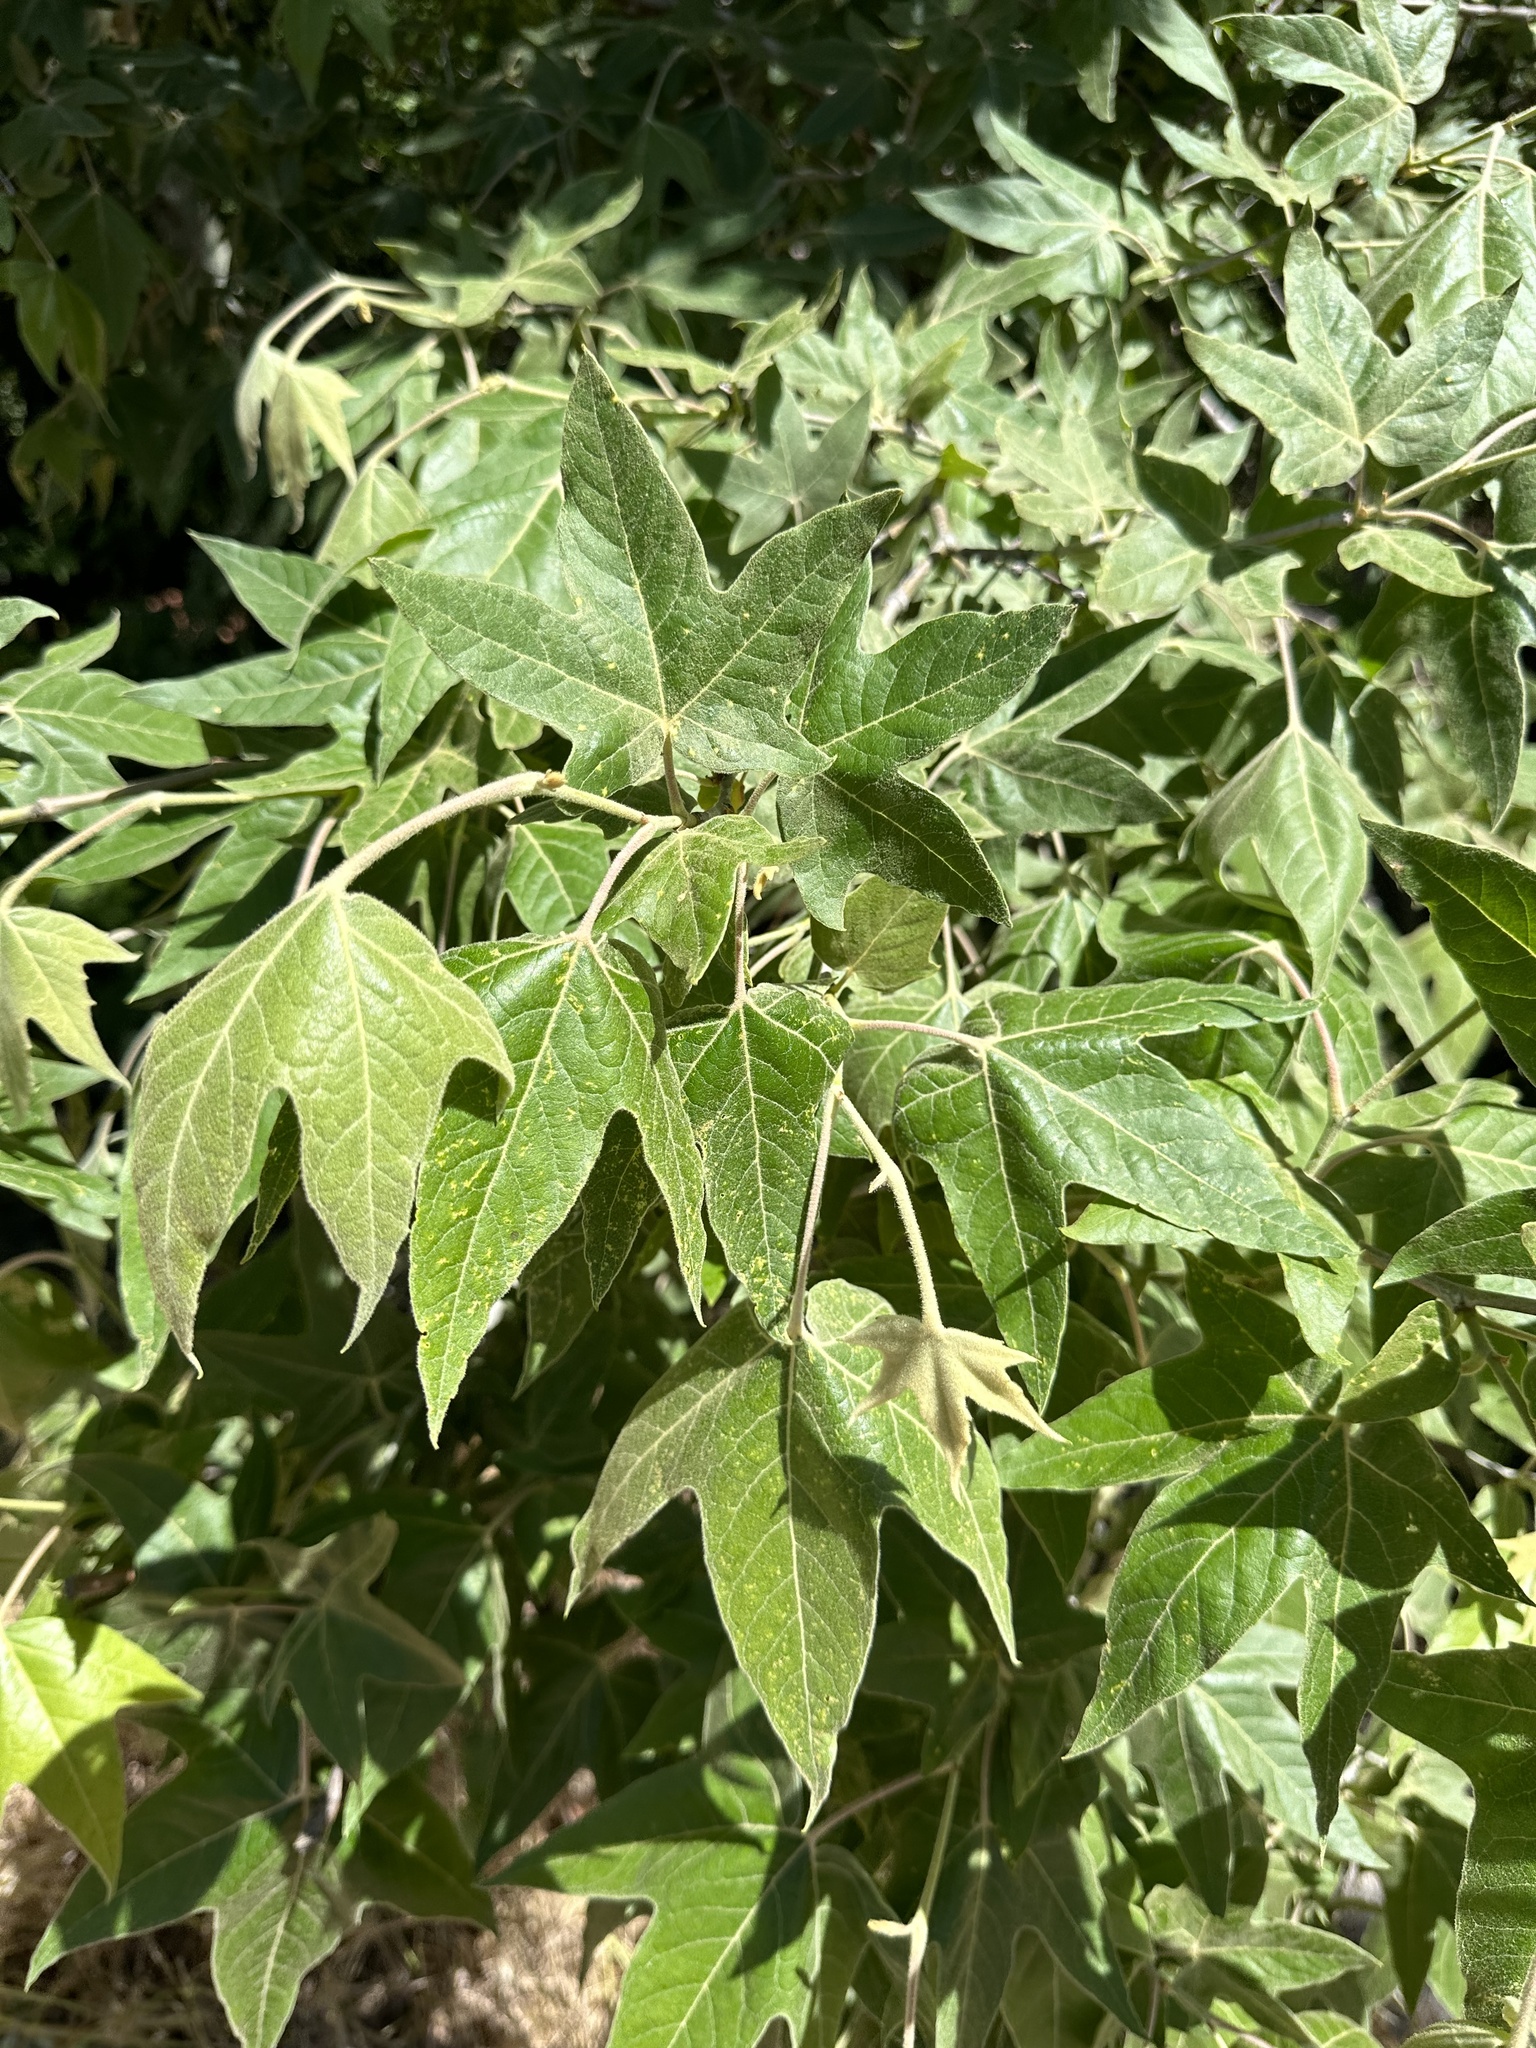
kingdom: Plantae
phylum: Tracheophyta
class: Magnoliopsida
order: Proteales
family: Platanaceae
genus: Platanus
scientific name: Platanus wrightii
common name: Arizona sycamore
